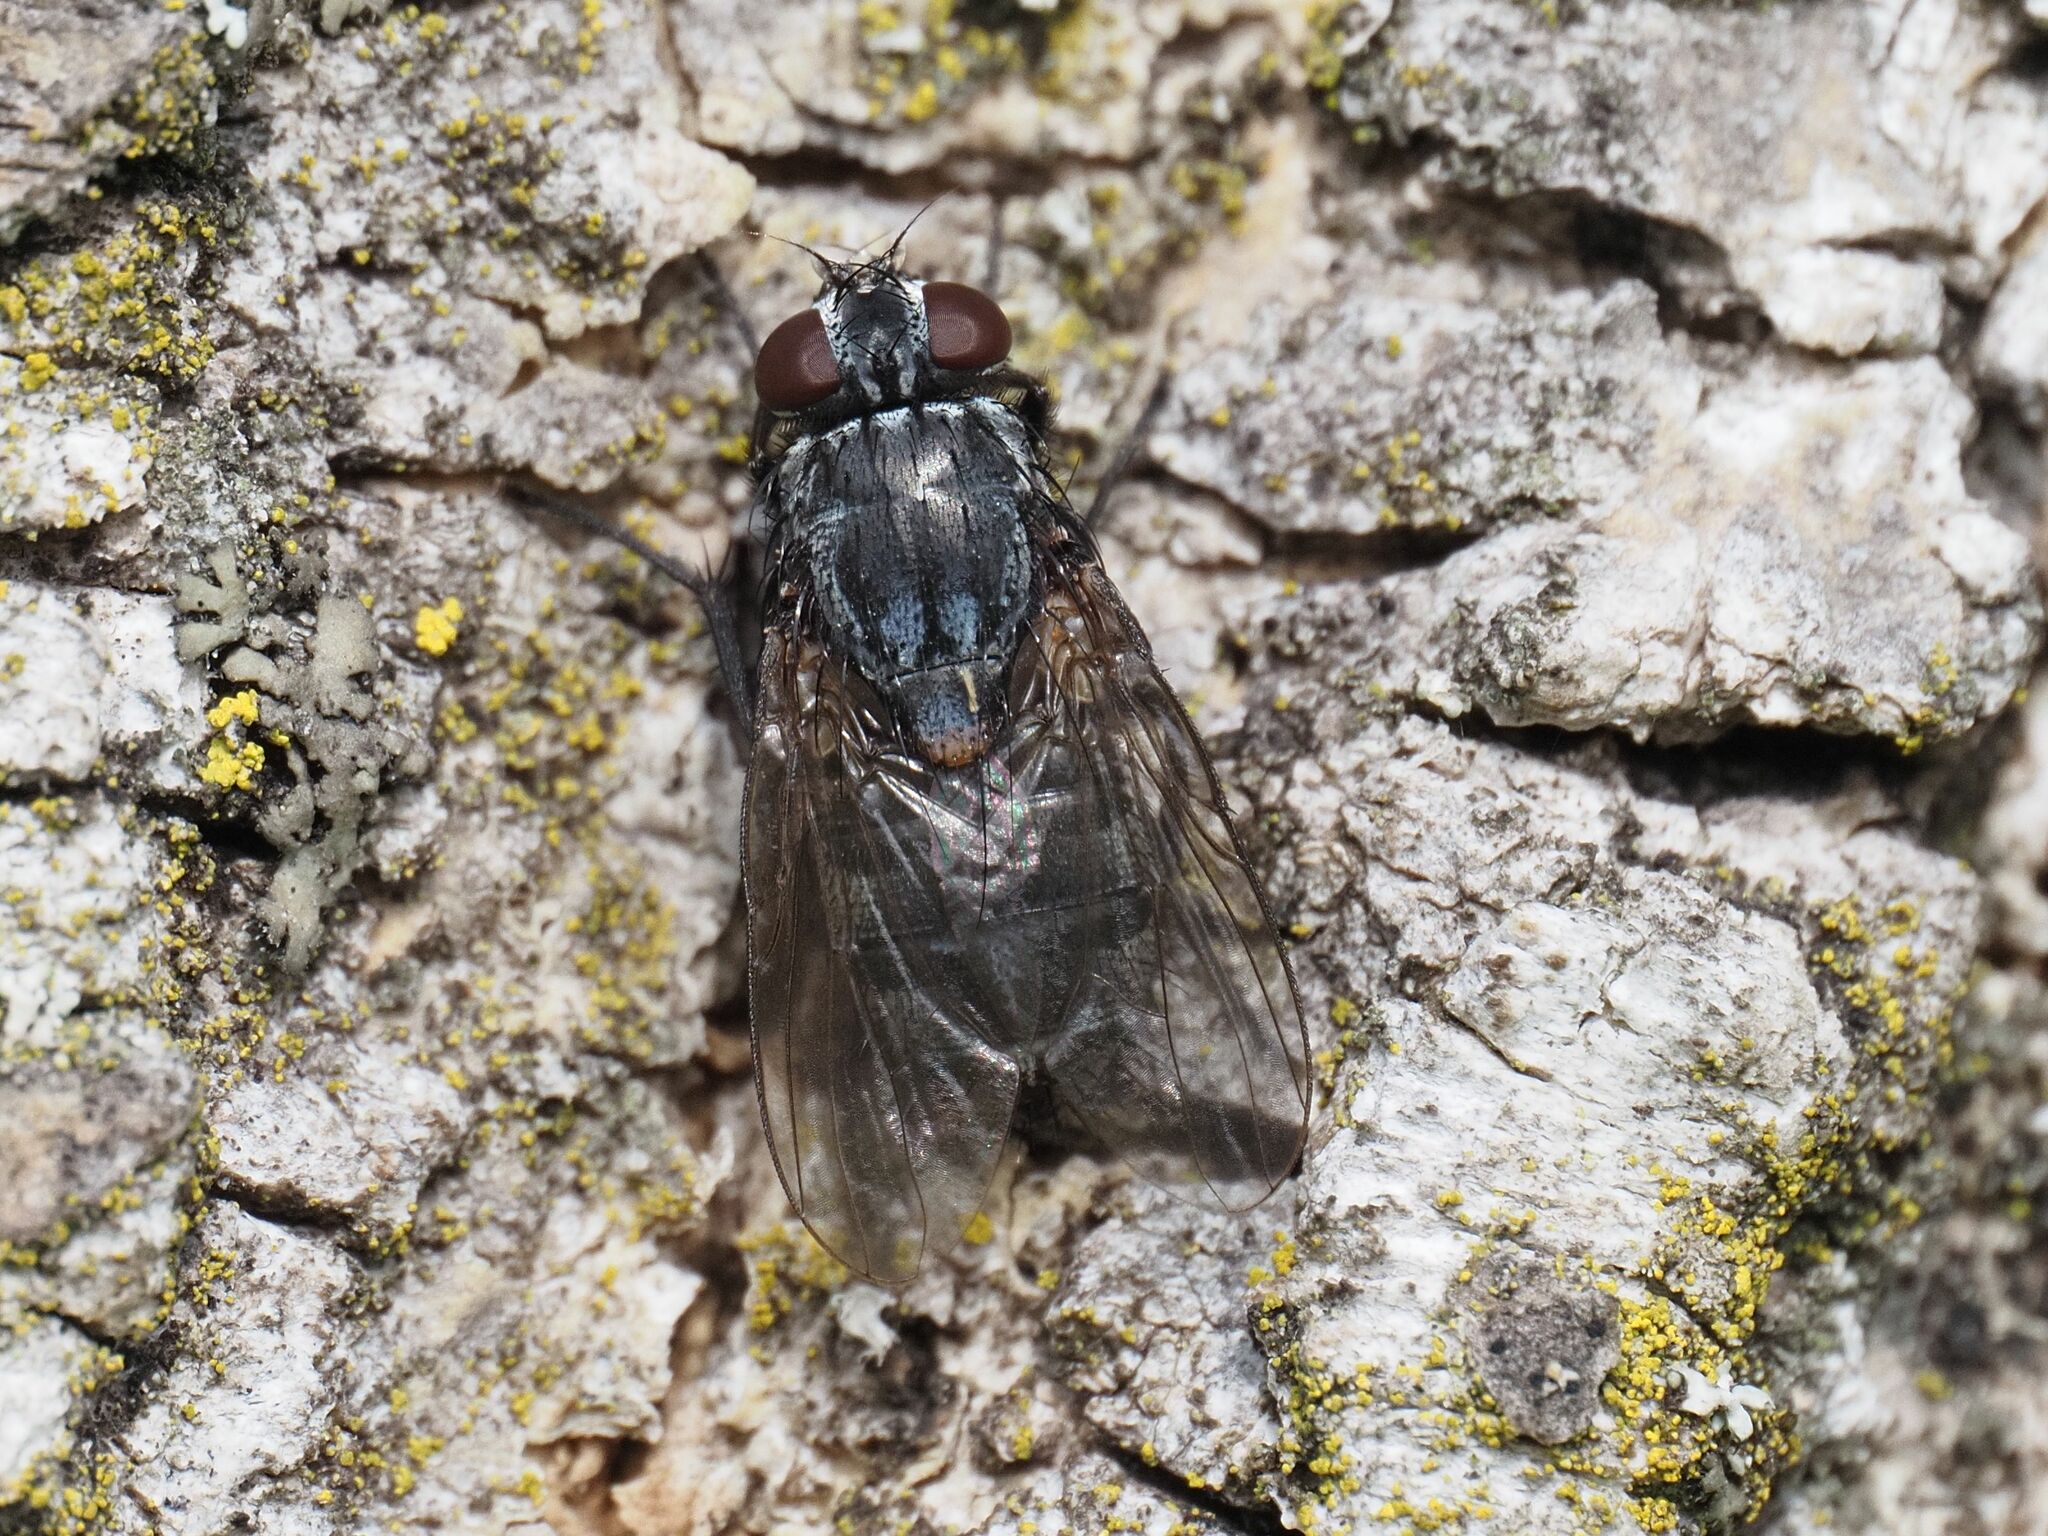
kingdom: Animalia
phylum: Arthropoda
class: Insecta
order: Diptera
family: Muscidae
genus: Muscina
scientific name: Muscina levida
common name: House fly
